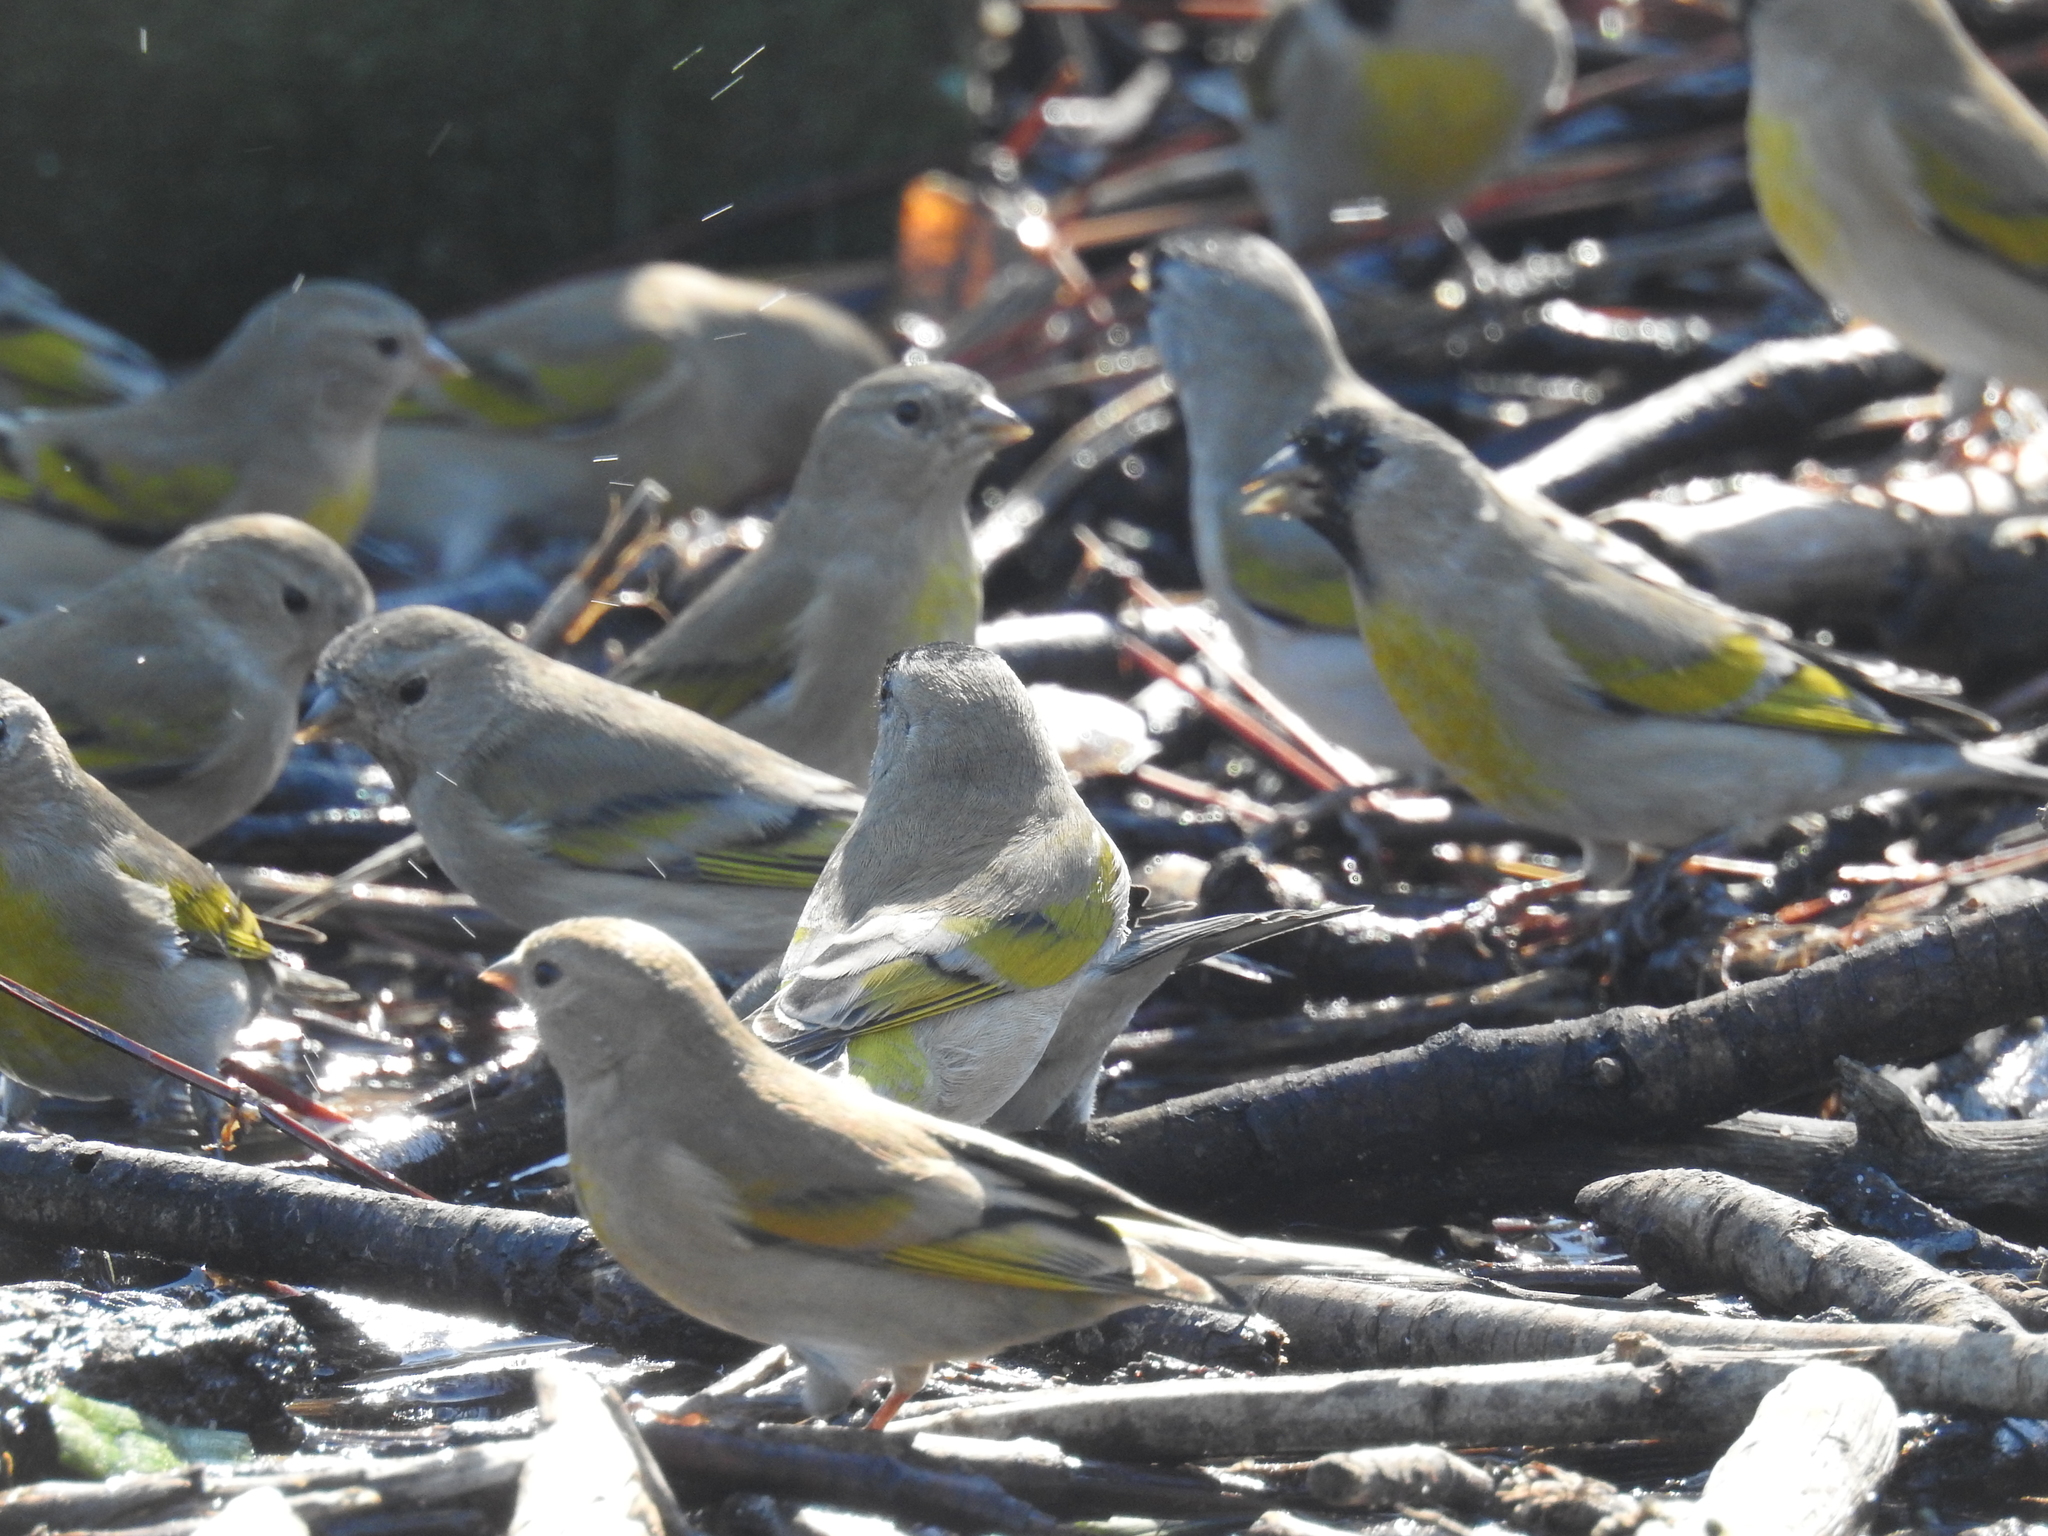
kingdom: Animalia
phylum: Chordata
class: Aves
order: Passeriformes
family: Fringillidae
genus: Spinus
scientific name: Spinus lawrencei
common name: Lawrence's goldfinch
